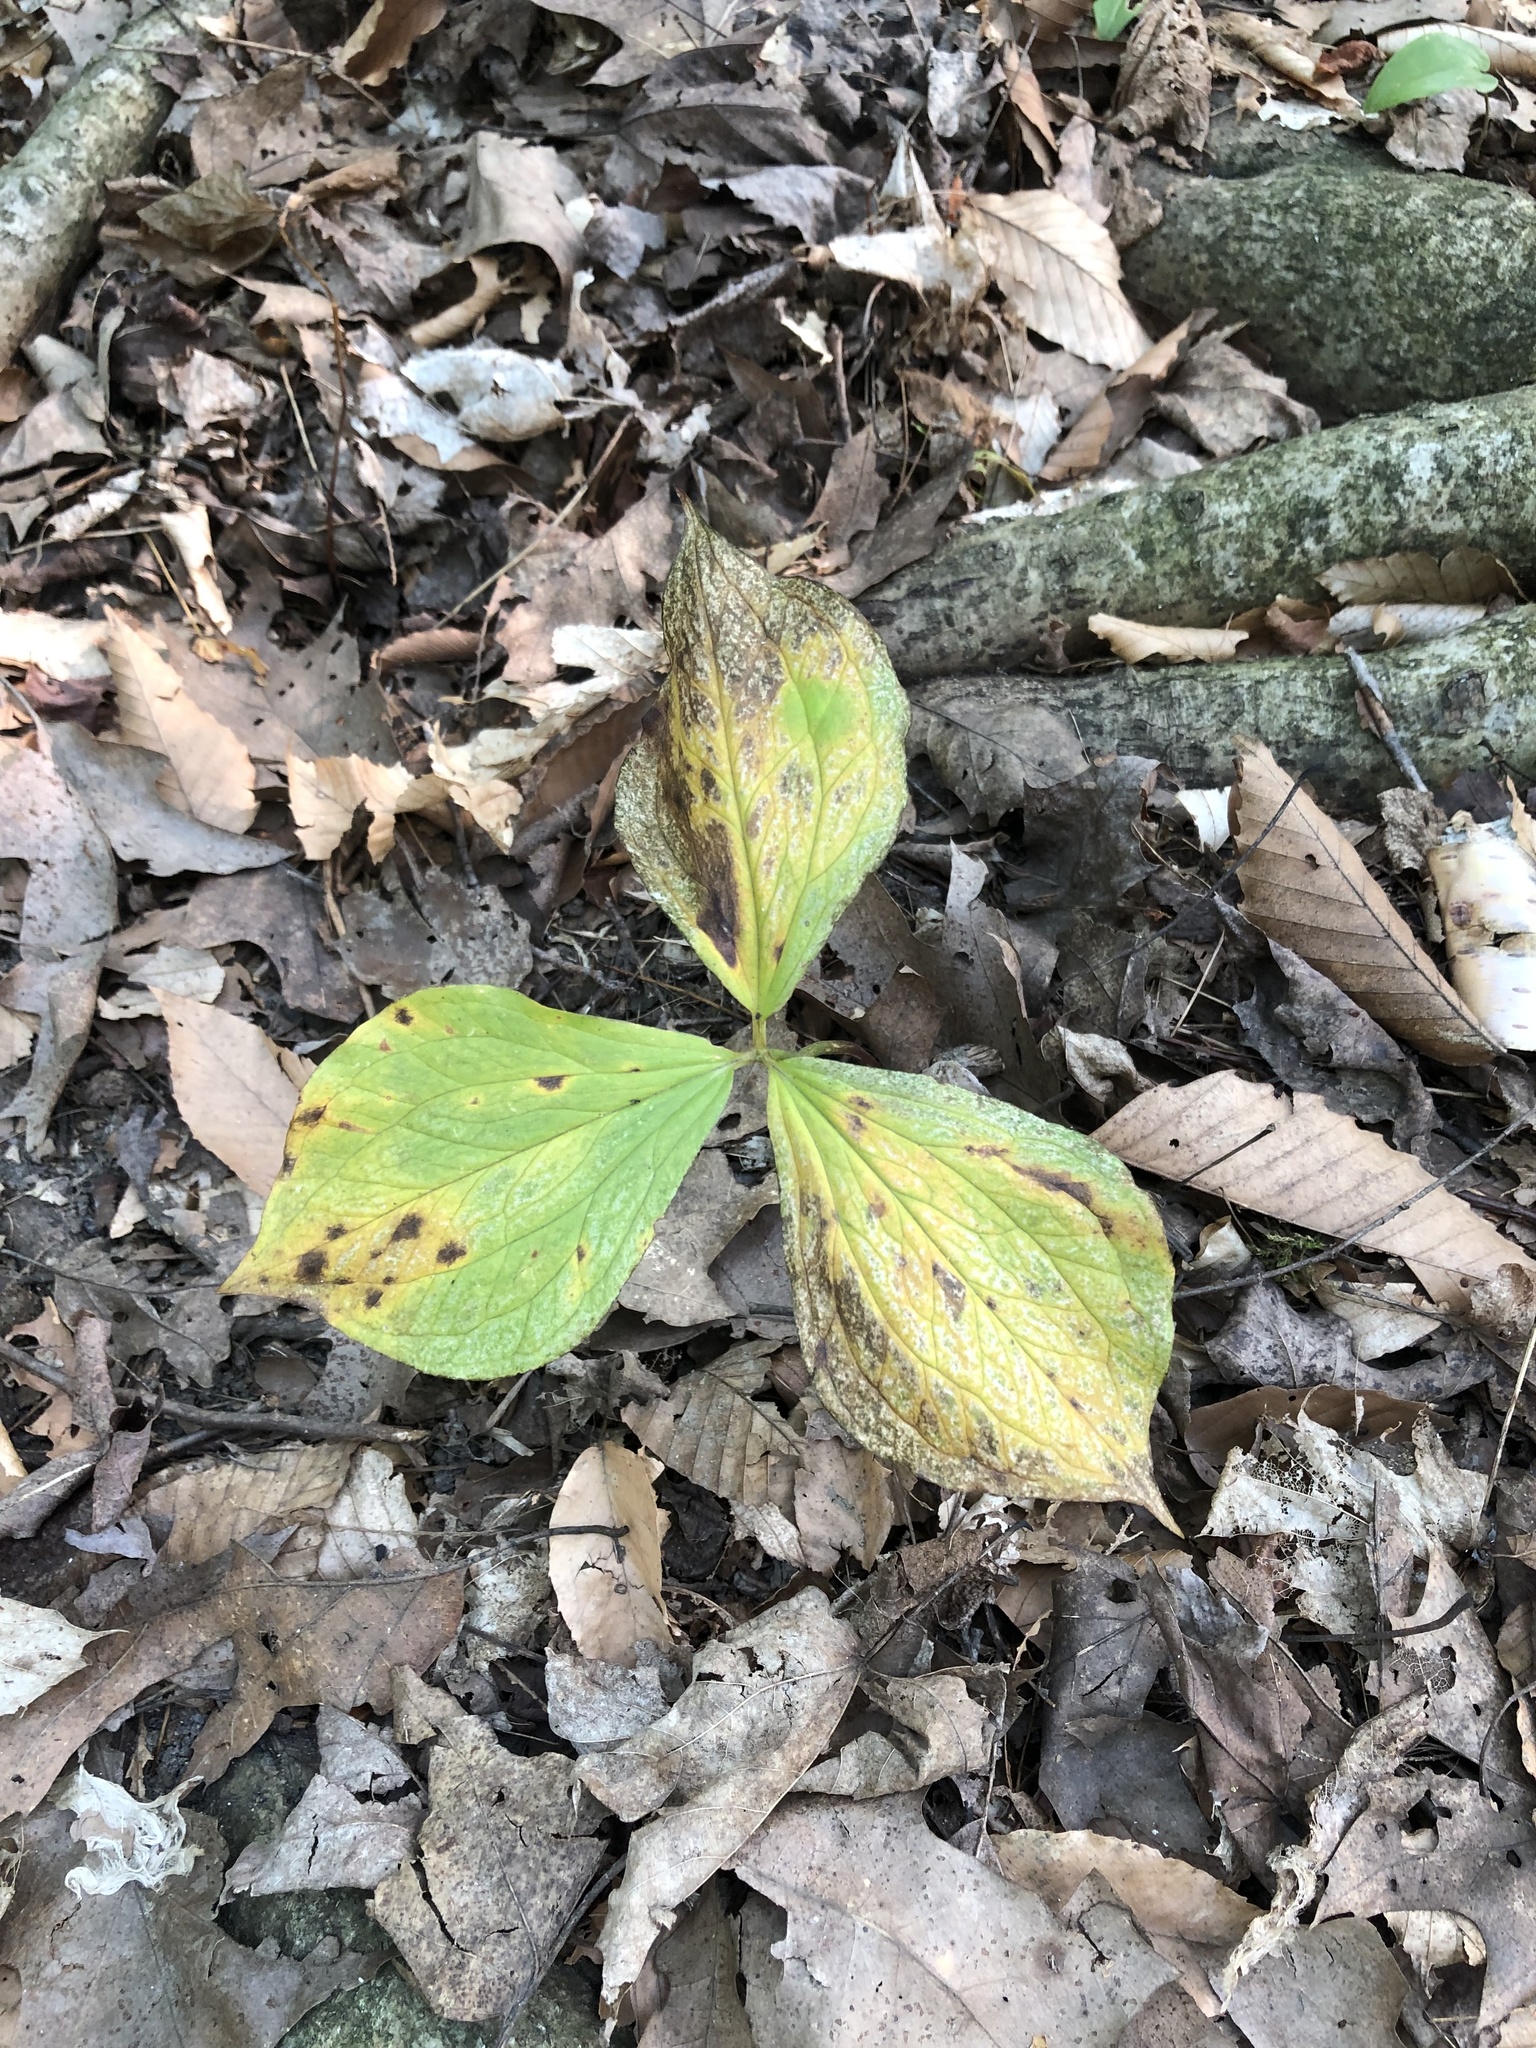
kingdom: Plantae
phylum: Tracheophyta
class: Liliopsida
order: Liliales
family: Melanthiaceae
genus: Trillium
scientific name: Trillium grandiflorum
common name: Great white trillium
